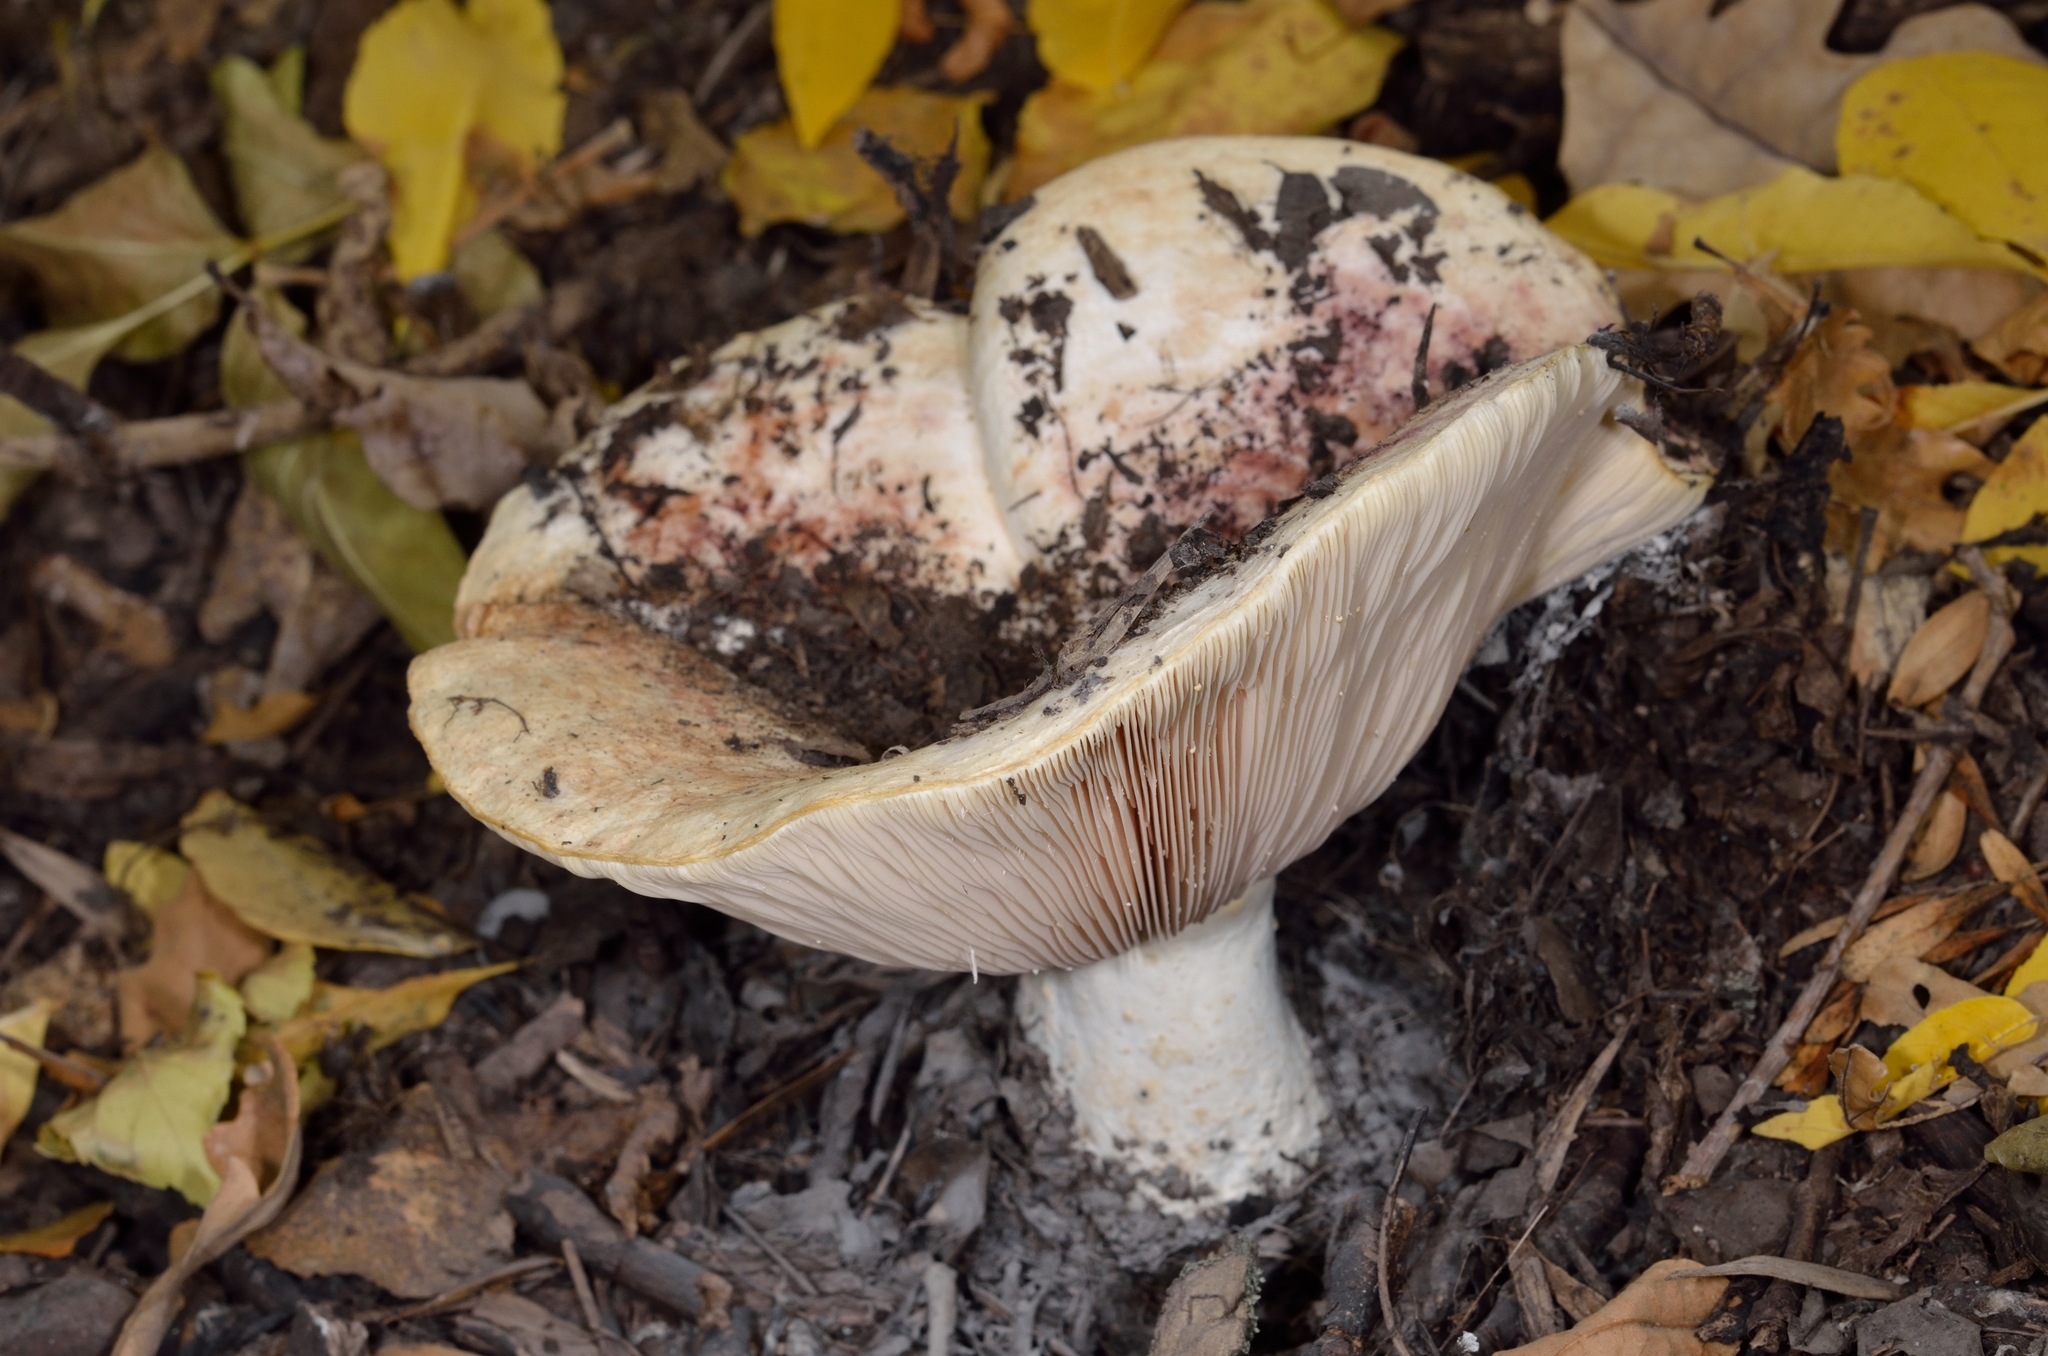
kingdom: Fungi
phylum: Basidiomycota
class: Agaricomycetes
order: Russulales
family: Russulaceae
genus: Lactarius
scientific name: Lactarius controversus
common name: Blushing milkcap
